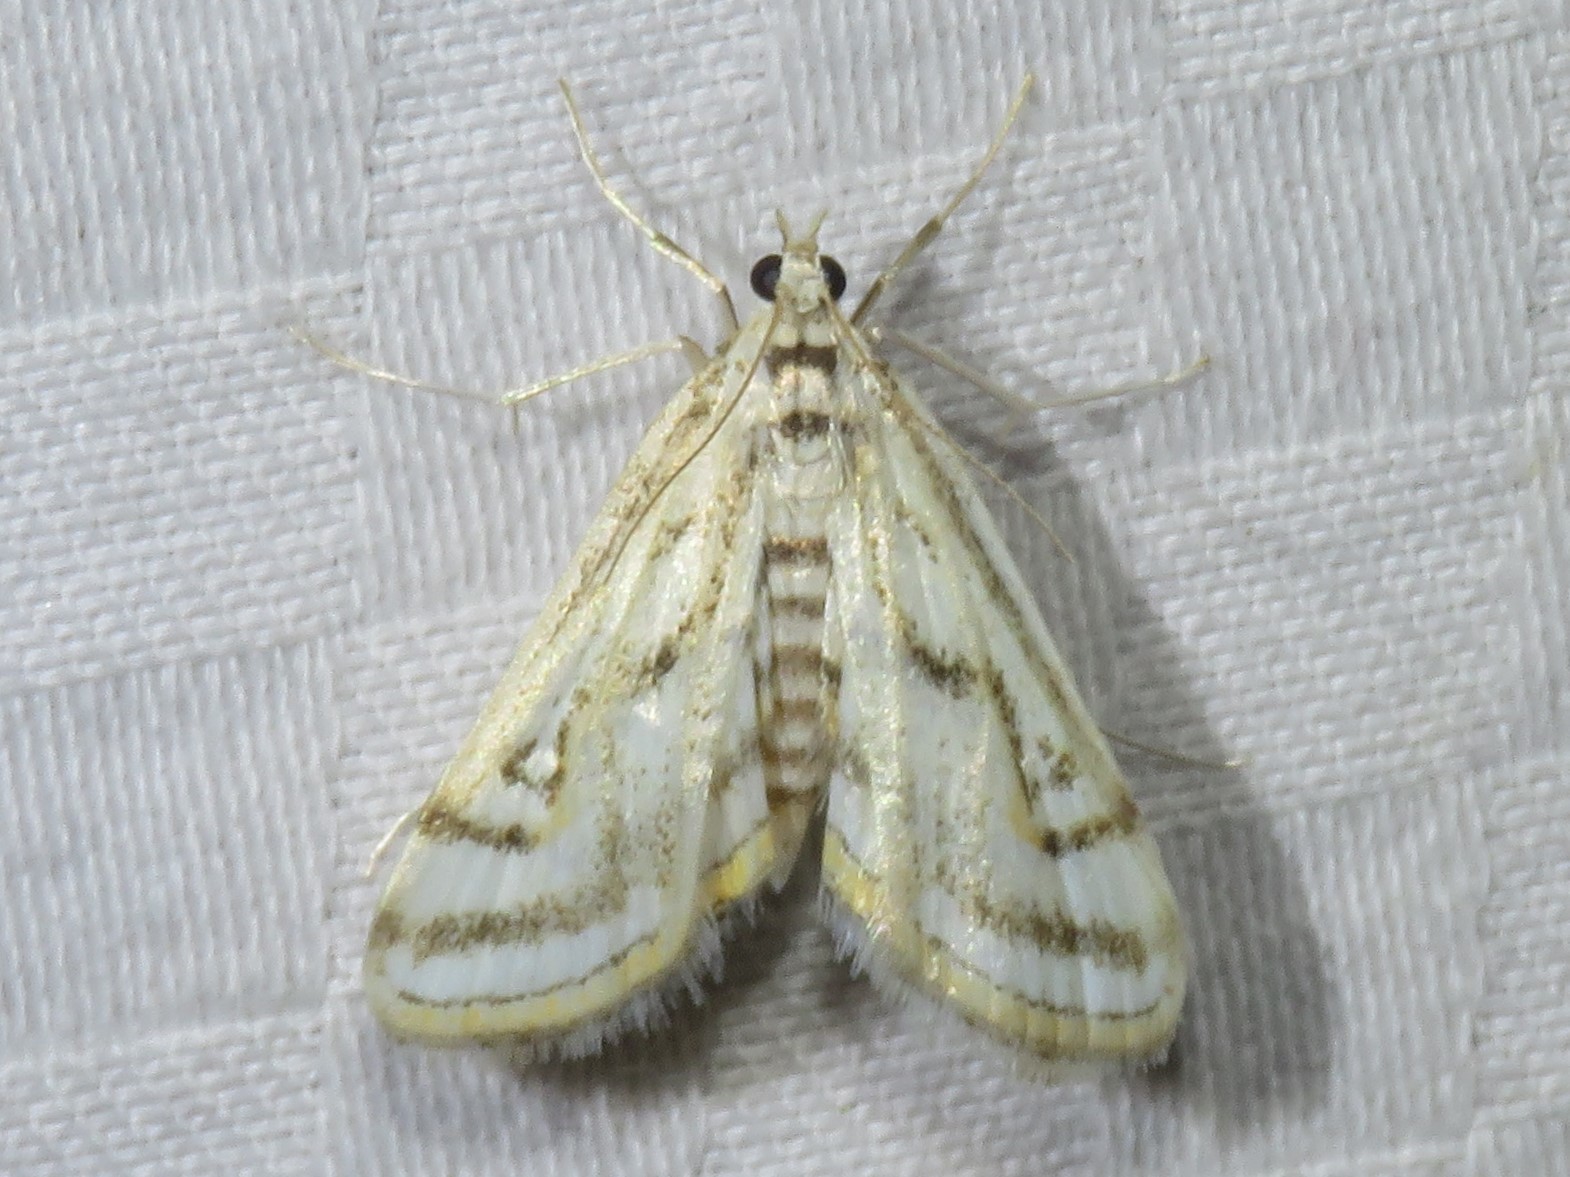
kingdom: Animalia
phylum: Arthropoda
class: Insecta
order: Lepidoptera
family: Crambidae
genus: Parapoynx
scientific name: Parapoynx badiusalis
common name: Chestnut-marked pondweed moth
